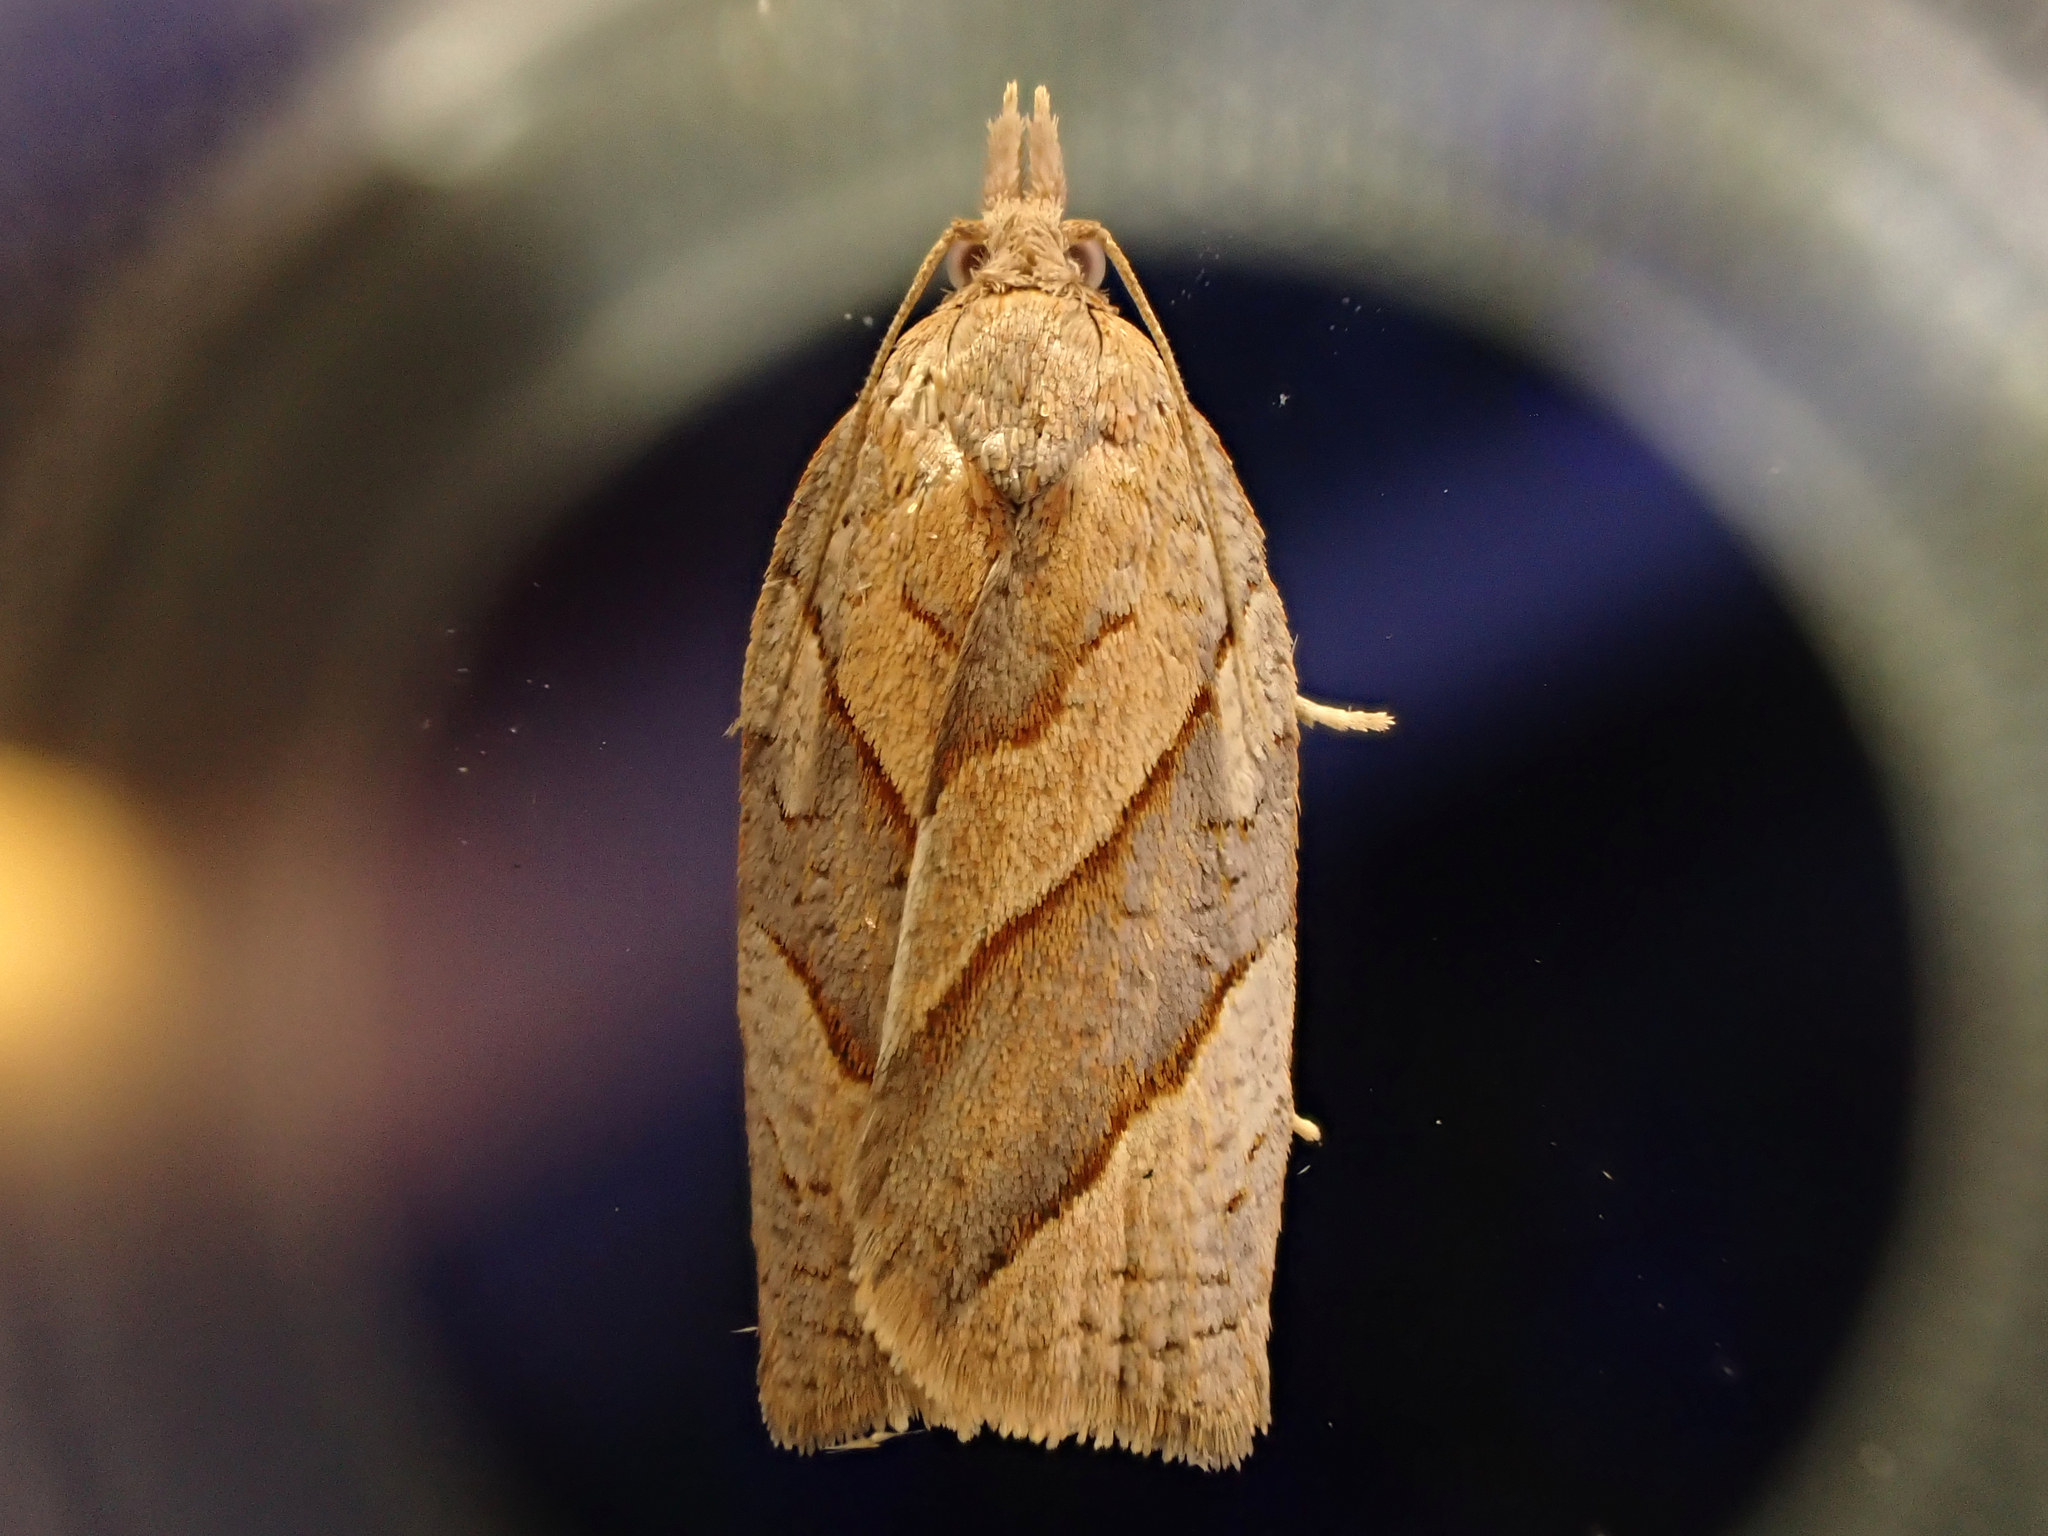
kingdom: Animalia
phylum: Arthropoda
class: Insecta
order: Lepidoptera
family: Tortricidae
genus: Apoctena
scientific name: Apoctena orthocopa
